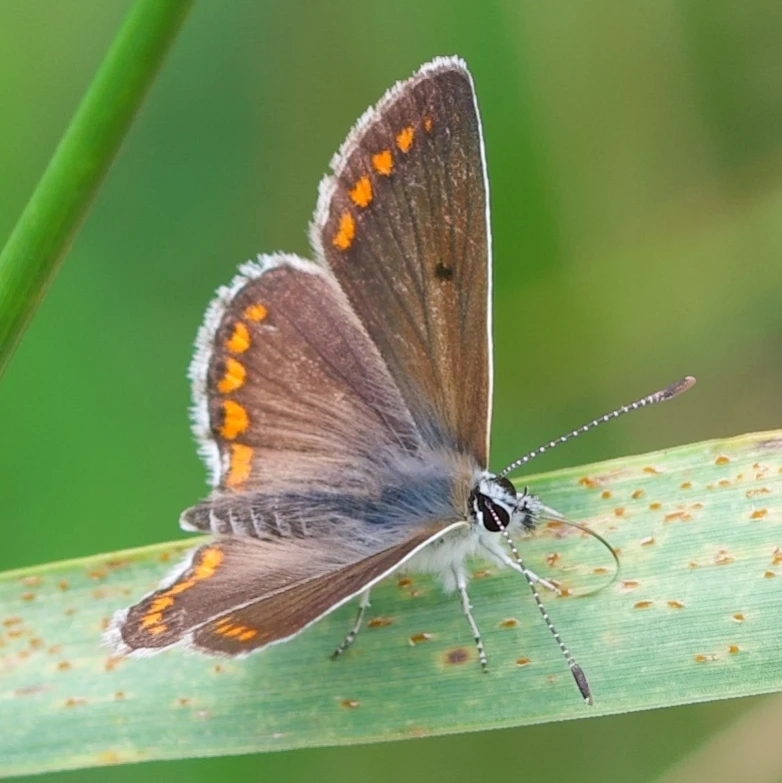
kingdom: Animalia
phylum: Arthropoda
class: Insecta
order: Lepidoptera
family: Lycaenidae
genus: Aricia
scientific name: Aricia agestis
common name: Brown argus
